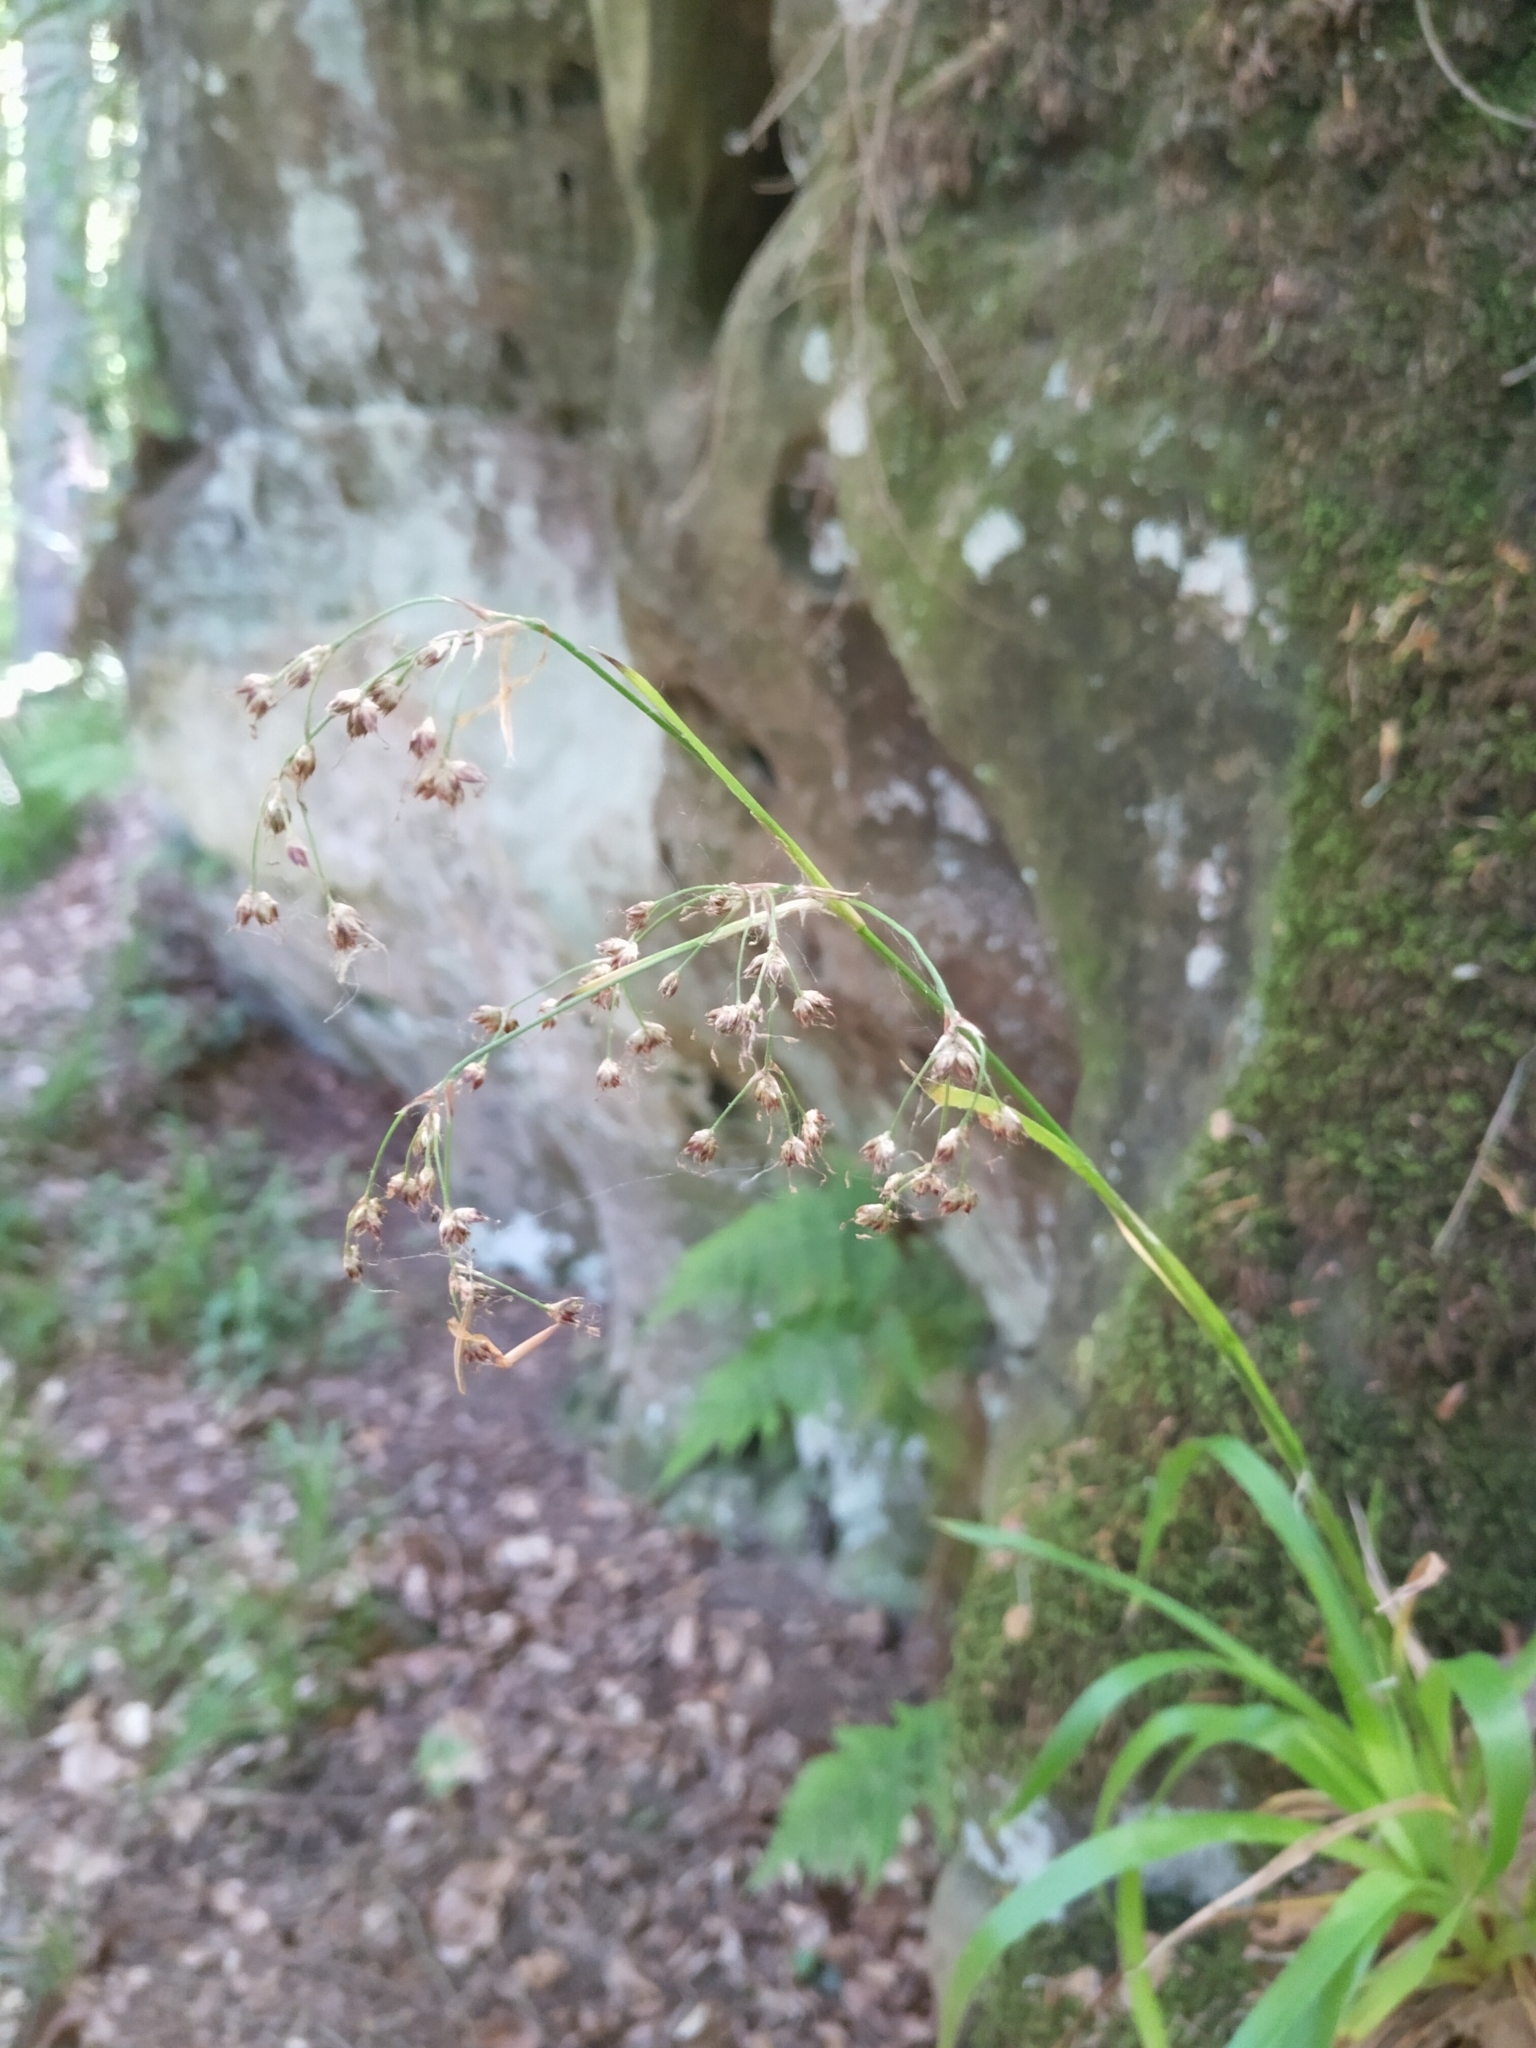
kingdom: Plantae
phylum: Tracheophyta
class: Liliopsida
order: Poales
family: Juncaceae
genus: Luzula
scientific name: Luzula sylvatica
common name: Great wood-rush
